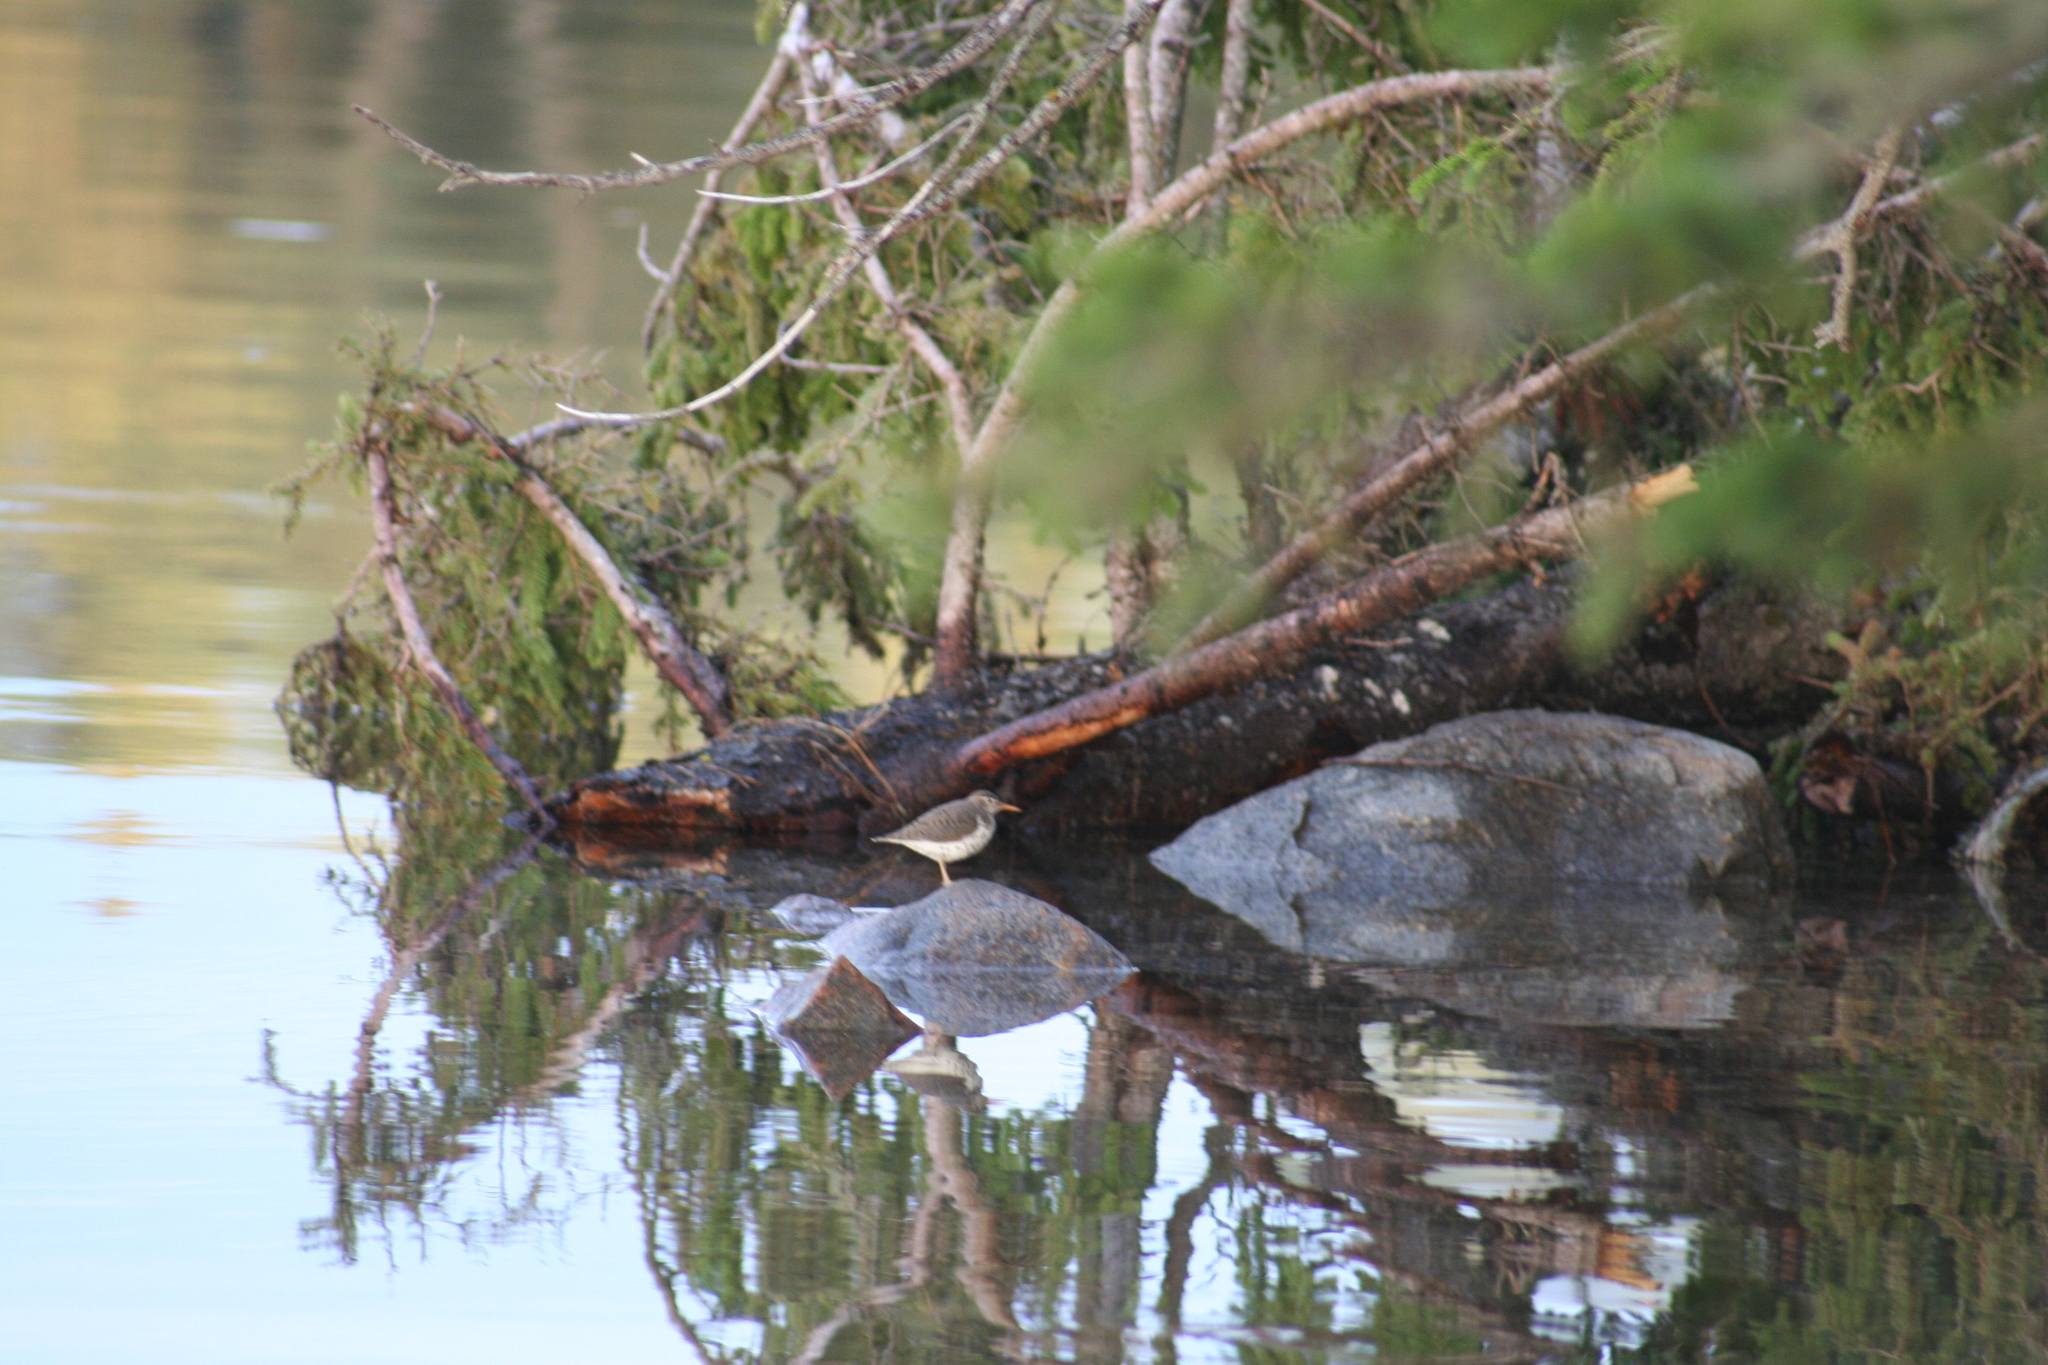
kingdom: Animalia
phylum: Chordata
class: Aves
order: Charadriiformes
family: Scolopacidae
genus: Actitis
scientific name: Actitis macularius
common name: Spotted sandpiper
